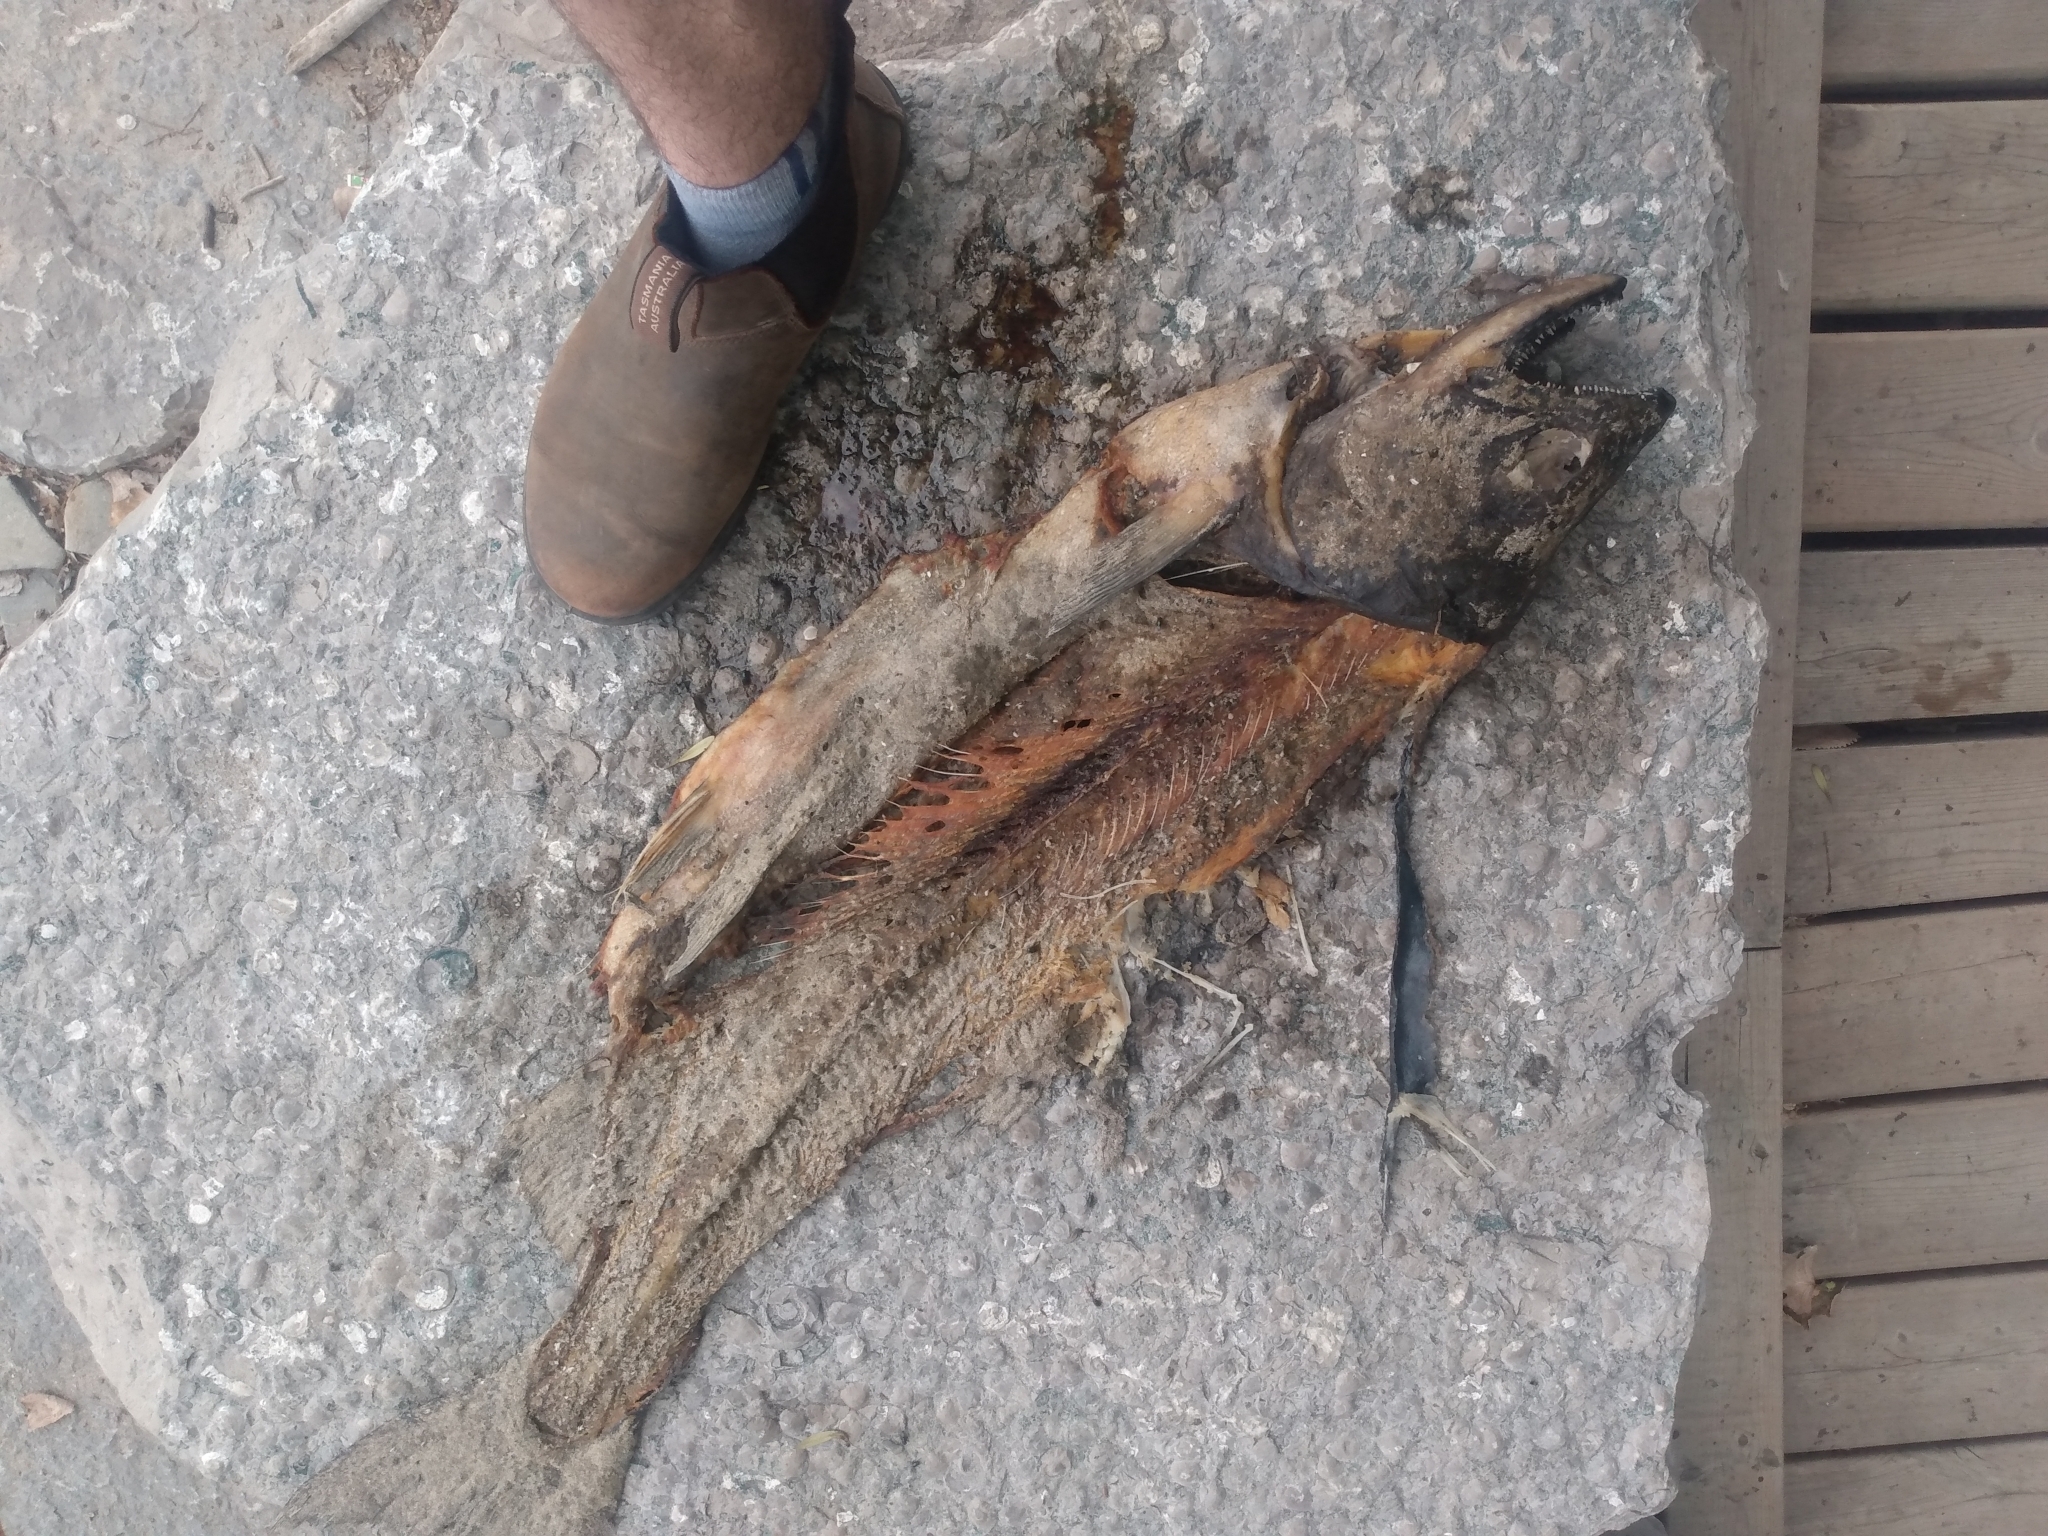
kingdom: Animalia
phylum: Chordata
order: Salmoniformes
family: Salmonidae
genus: Oncorhynchus
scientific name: Oncorhynchus tshawytscha
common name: Chinook salmon
